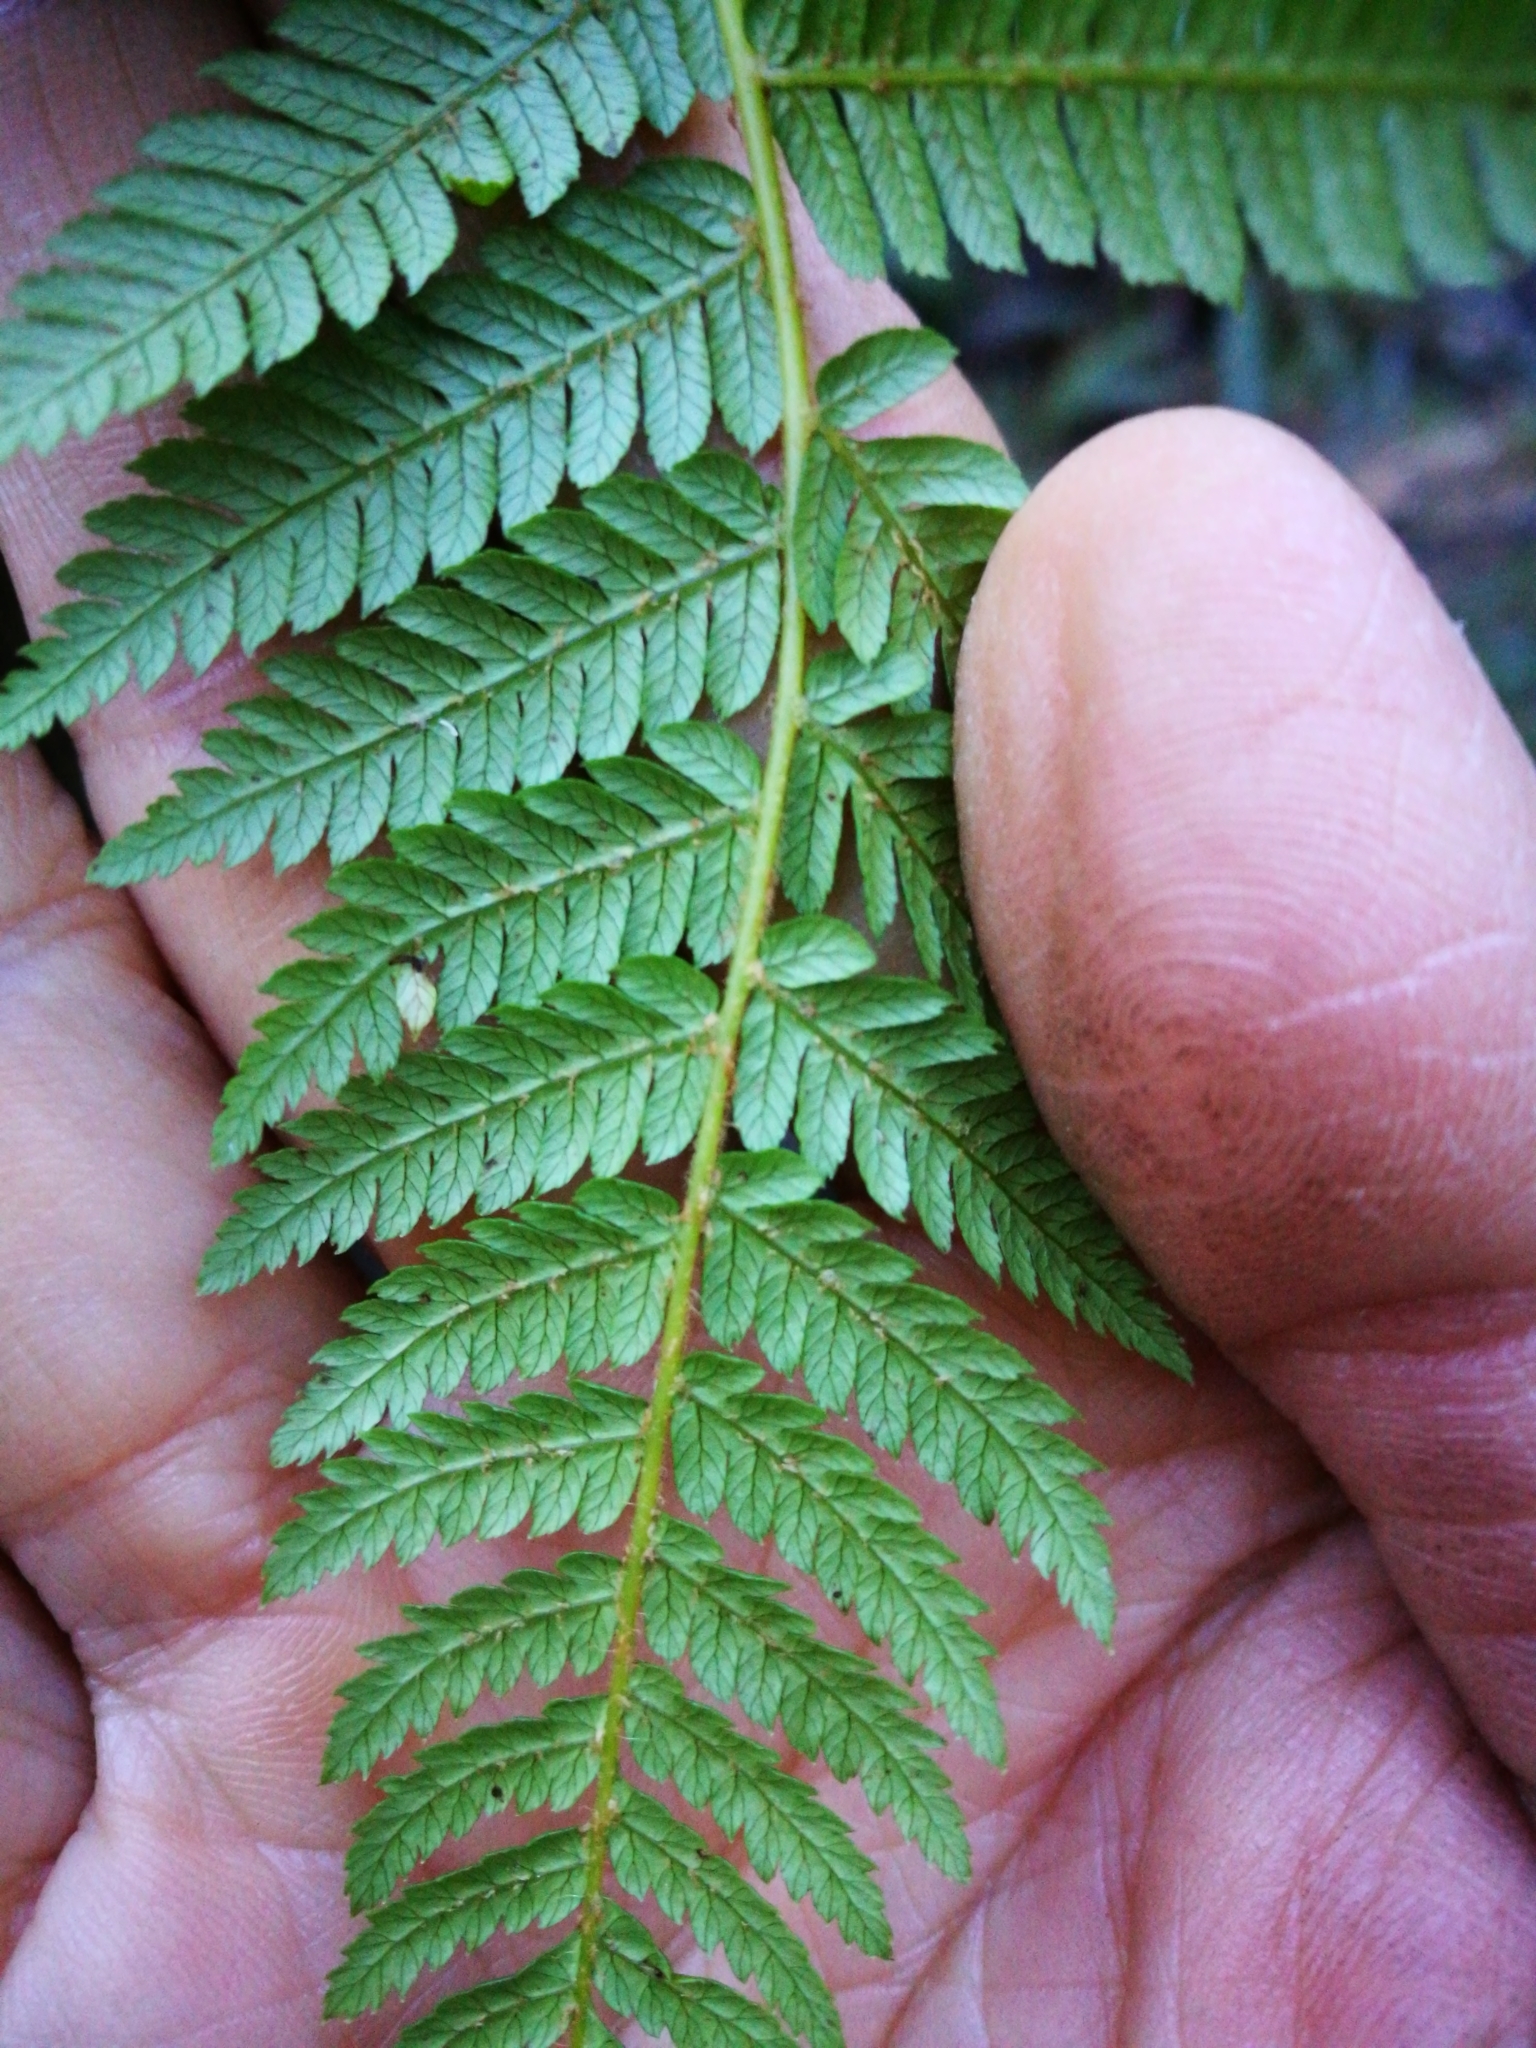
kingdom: Plantae
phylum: Tracheophyta
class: Polypodiopsida
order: Cyatheales
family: Cyatheaceae
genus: Alsophila
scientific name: Alsophila smithii
